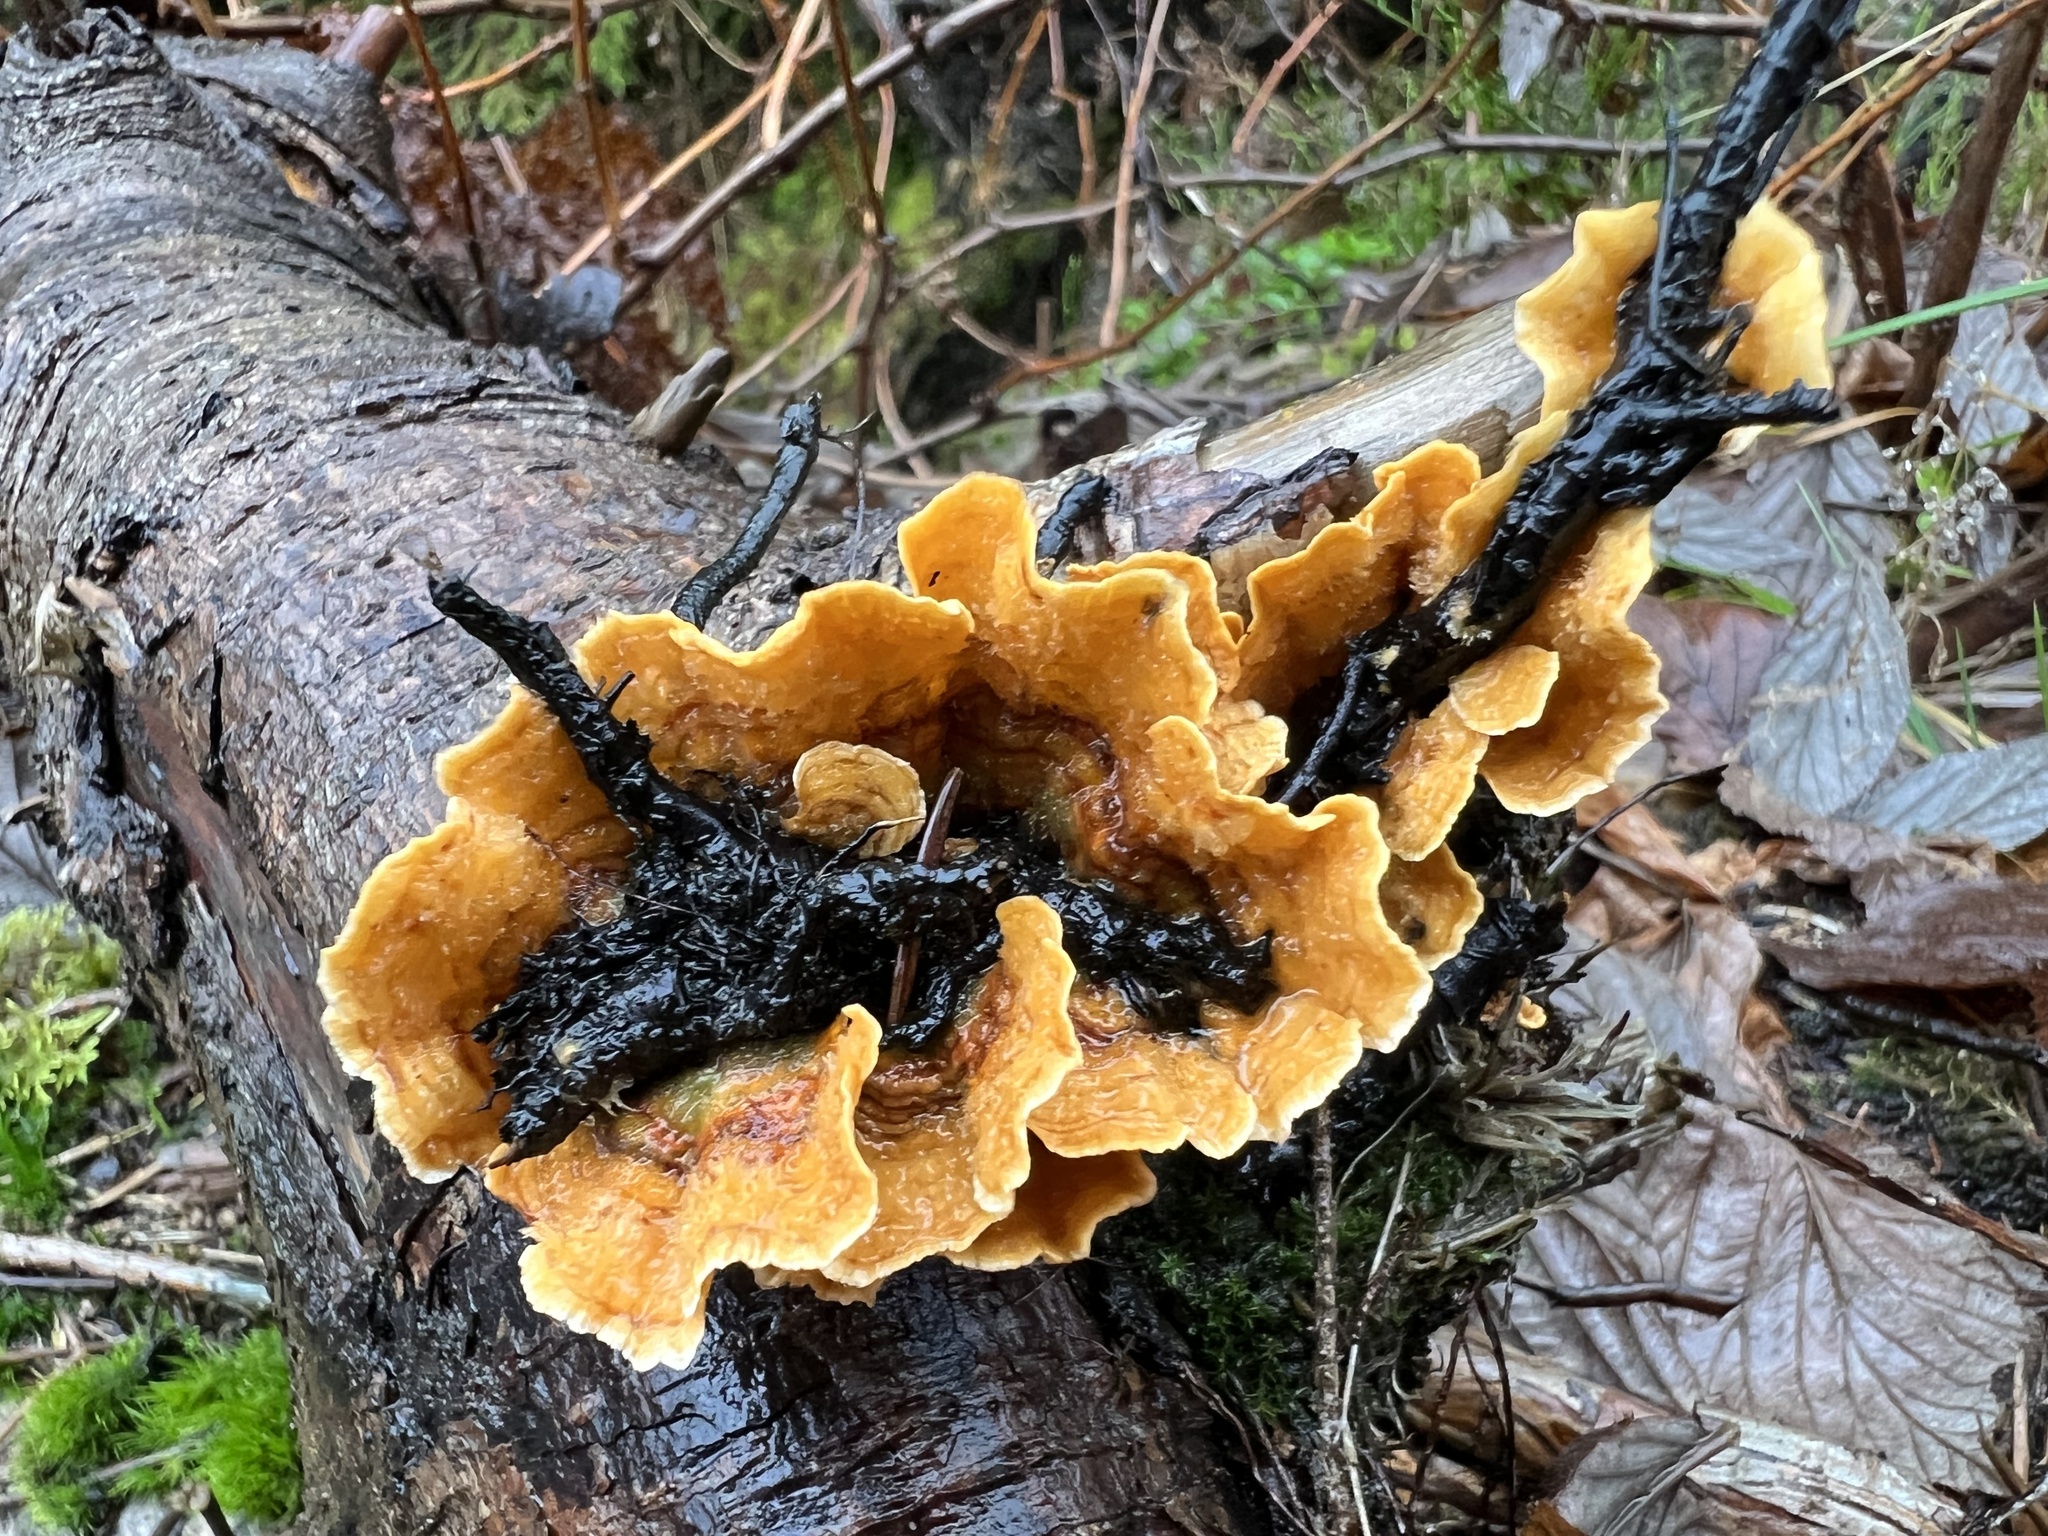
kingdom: Fungi
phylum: Basidiomycota
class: Agaricomycetes
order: Russulales
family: Stereaceae
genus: Stereum
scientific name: Stereum hirsutum
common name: Hairy curtain crust
